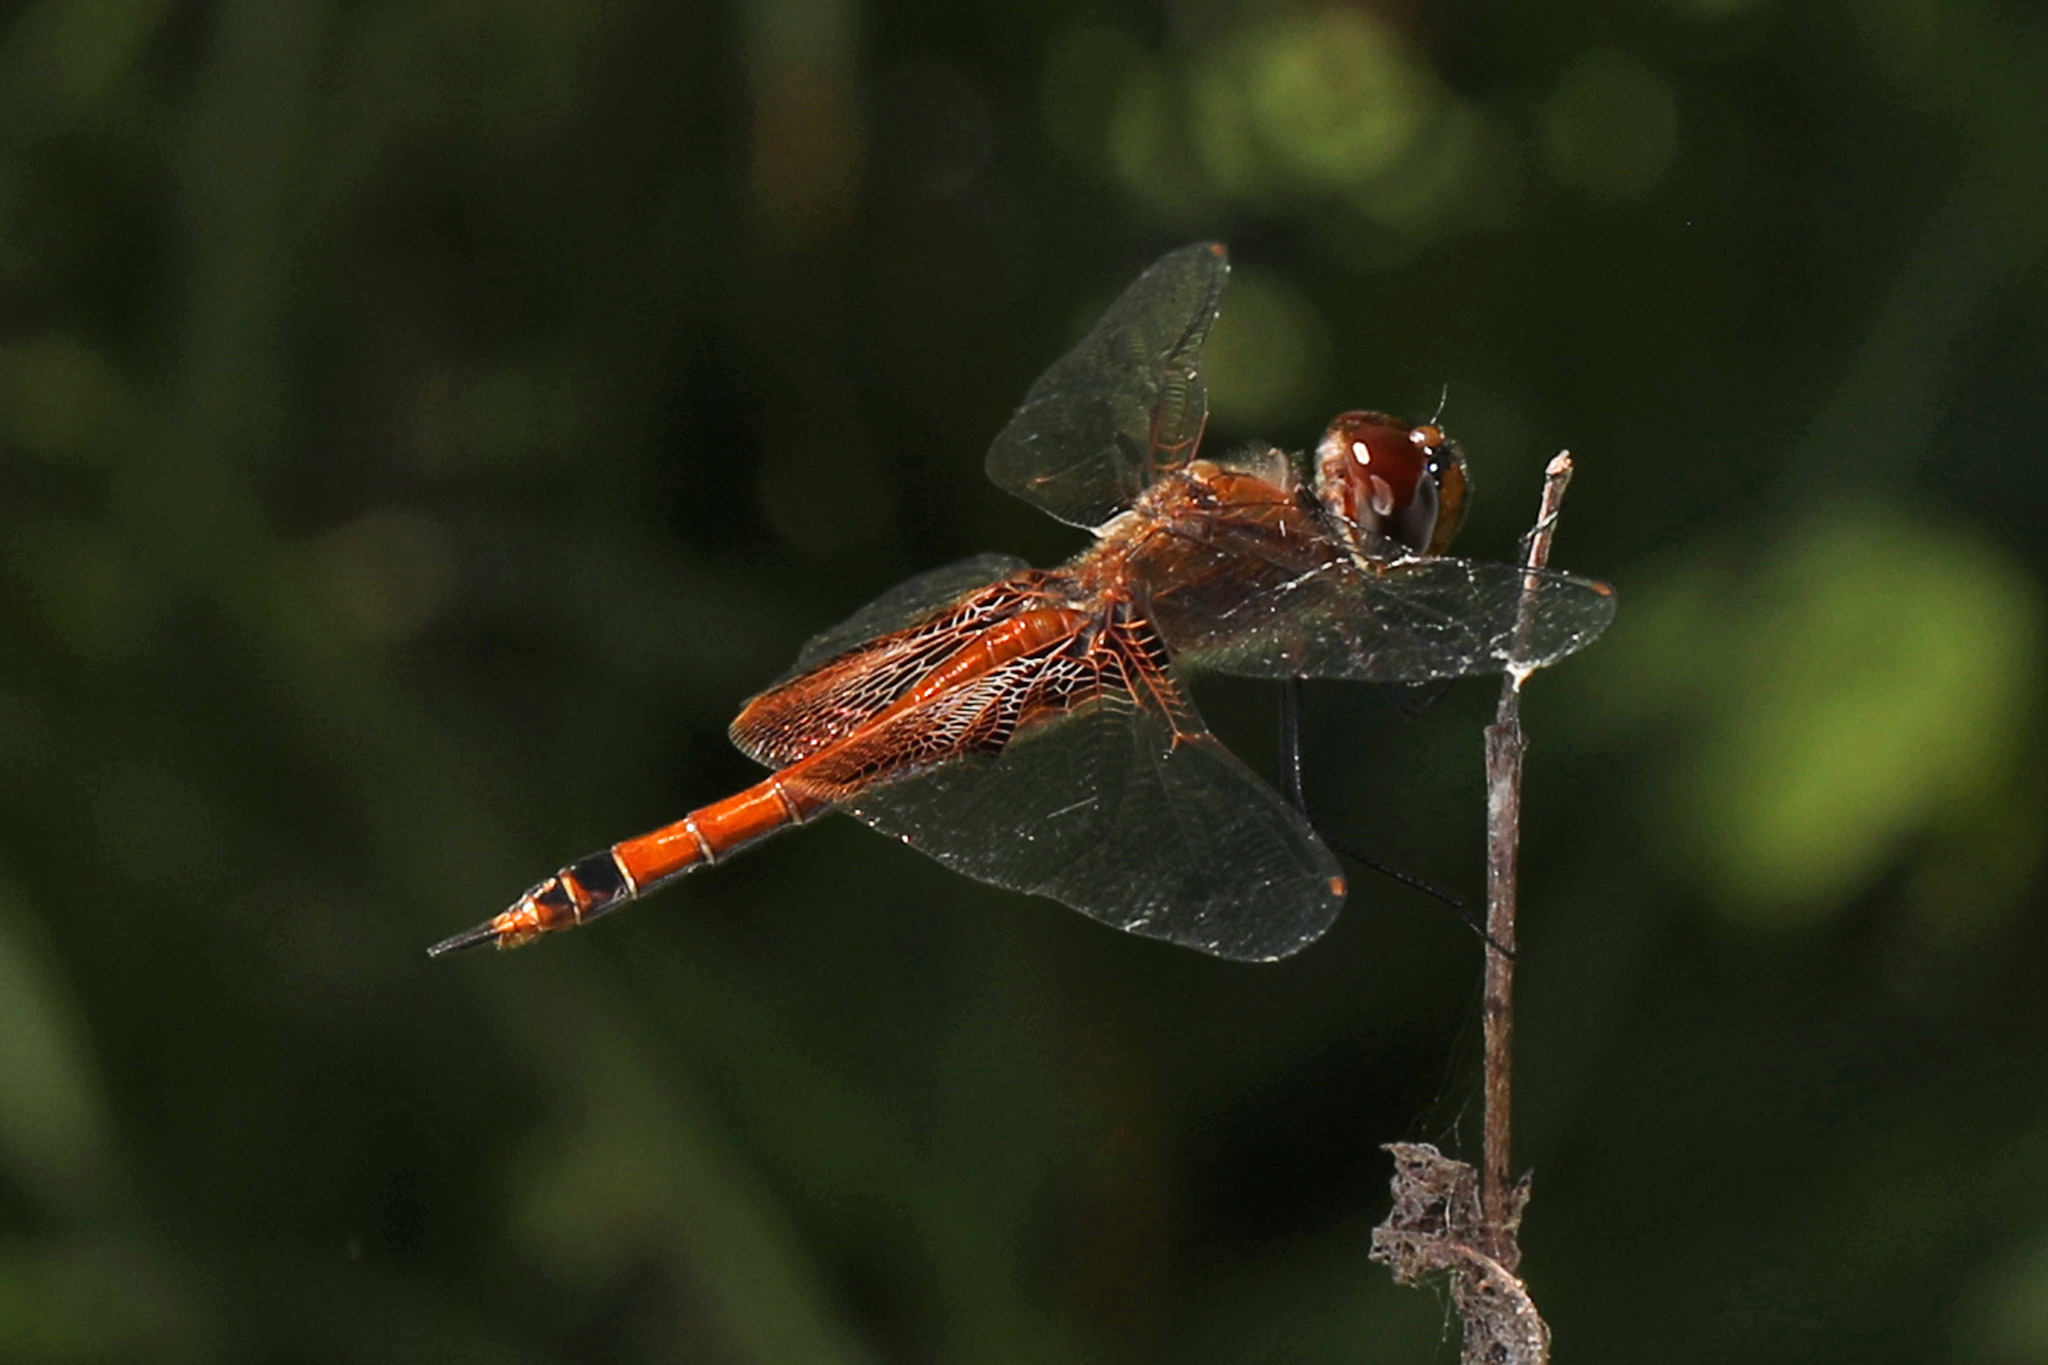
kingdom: Animalia
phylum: Arthropoda
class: Insecta
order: Odonata
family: Libellulidae
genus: Tramea
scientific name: Tramea carolina
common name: Carolina saddlebags
